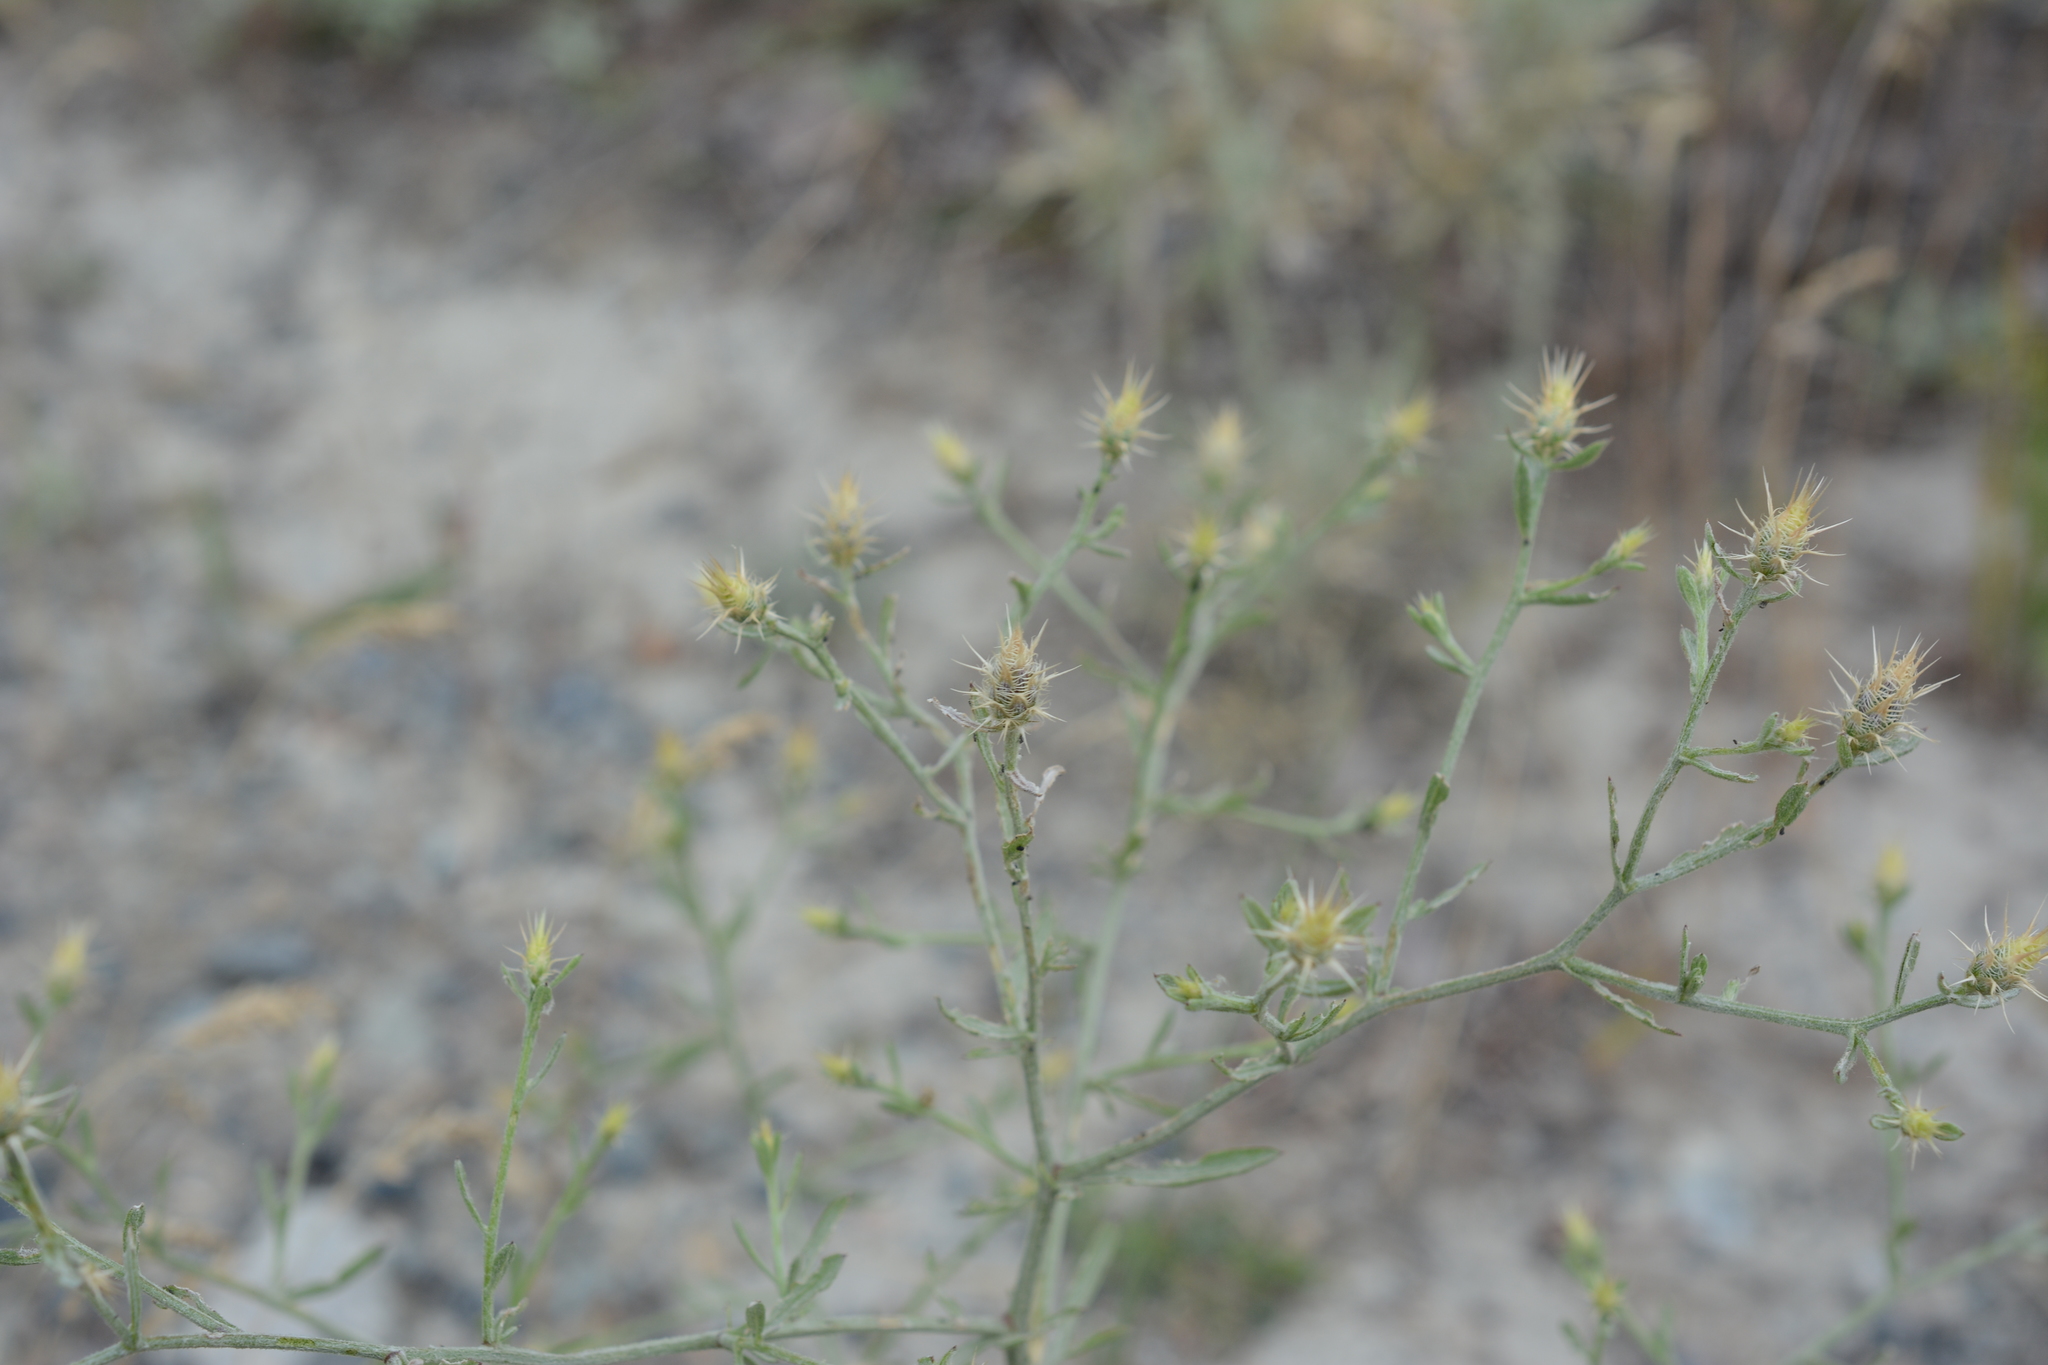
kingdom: Plantae
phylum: Tracheophyta
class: Magnoliopsida
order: Asterales
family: Asteraceae
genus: Centaurea
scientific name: Centaurea diffusa
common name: Diffuse knapweed
